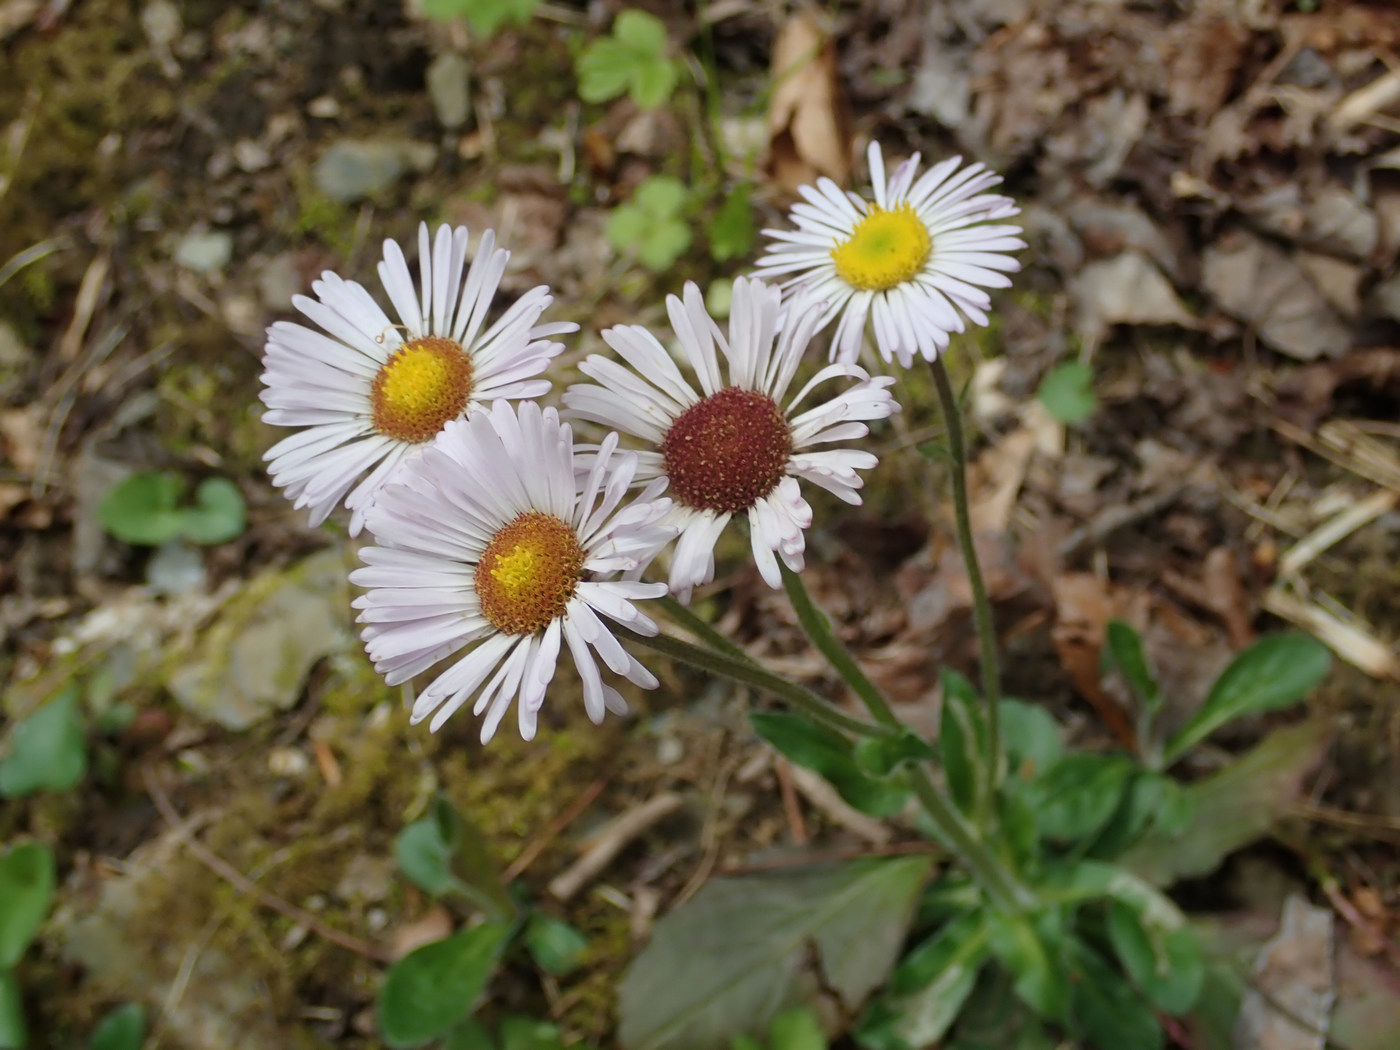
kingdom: Plantae
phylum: Tracheophyta
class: Magnoliopsida
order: Asterales
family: Asteraceae
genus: Erigeron
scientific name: Erigeron pulchellus
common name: Hairy fleabane
